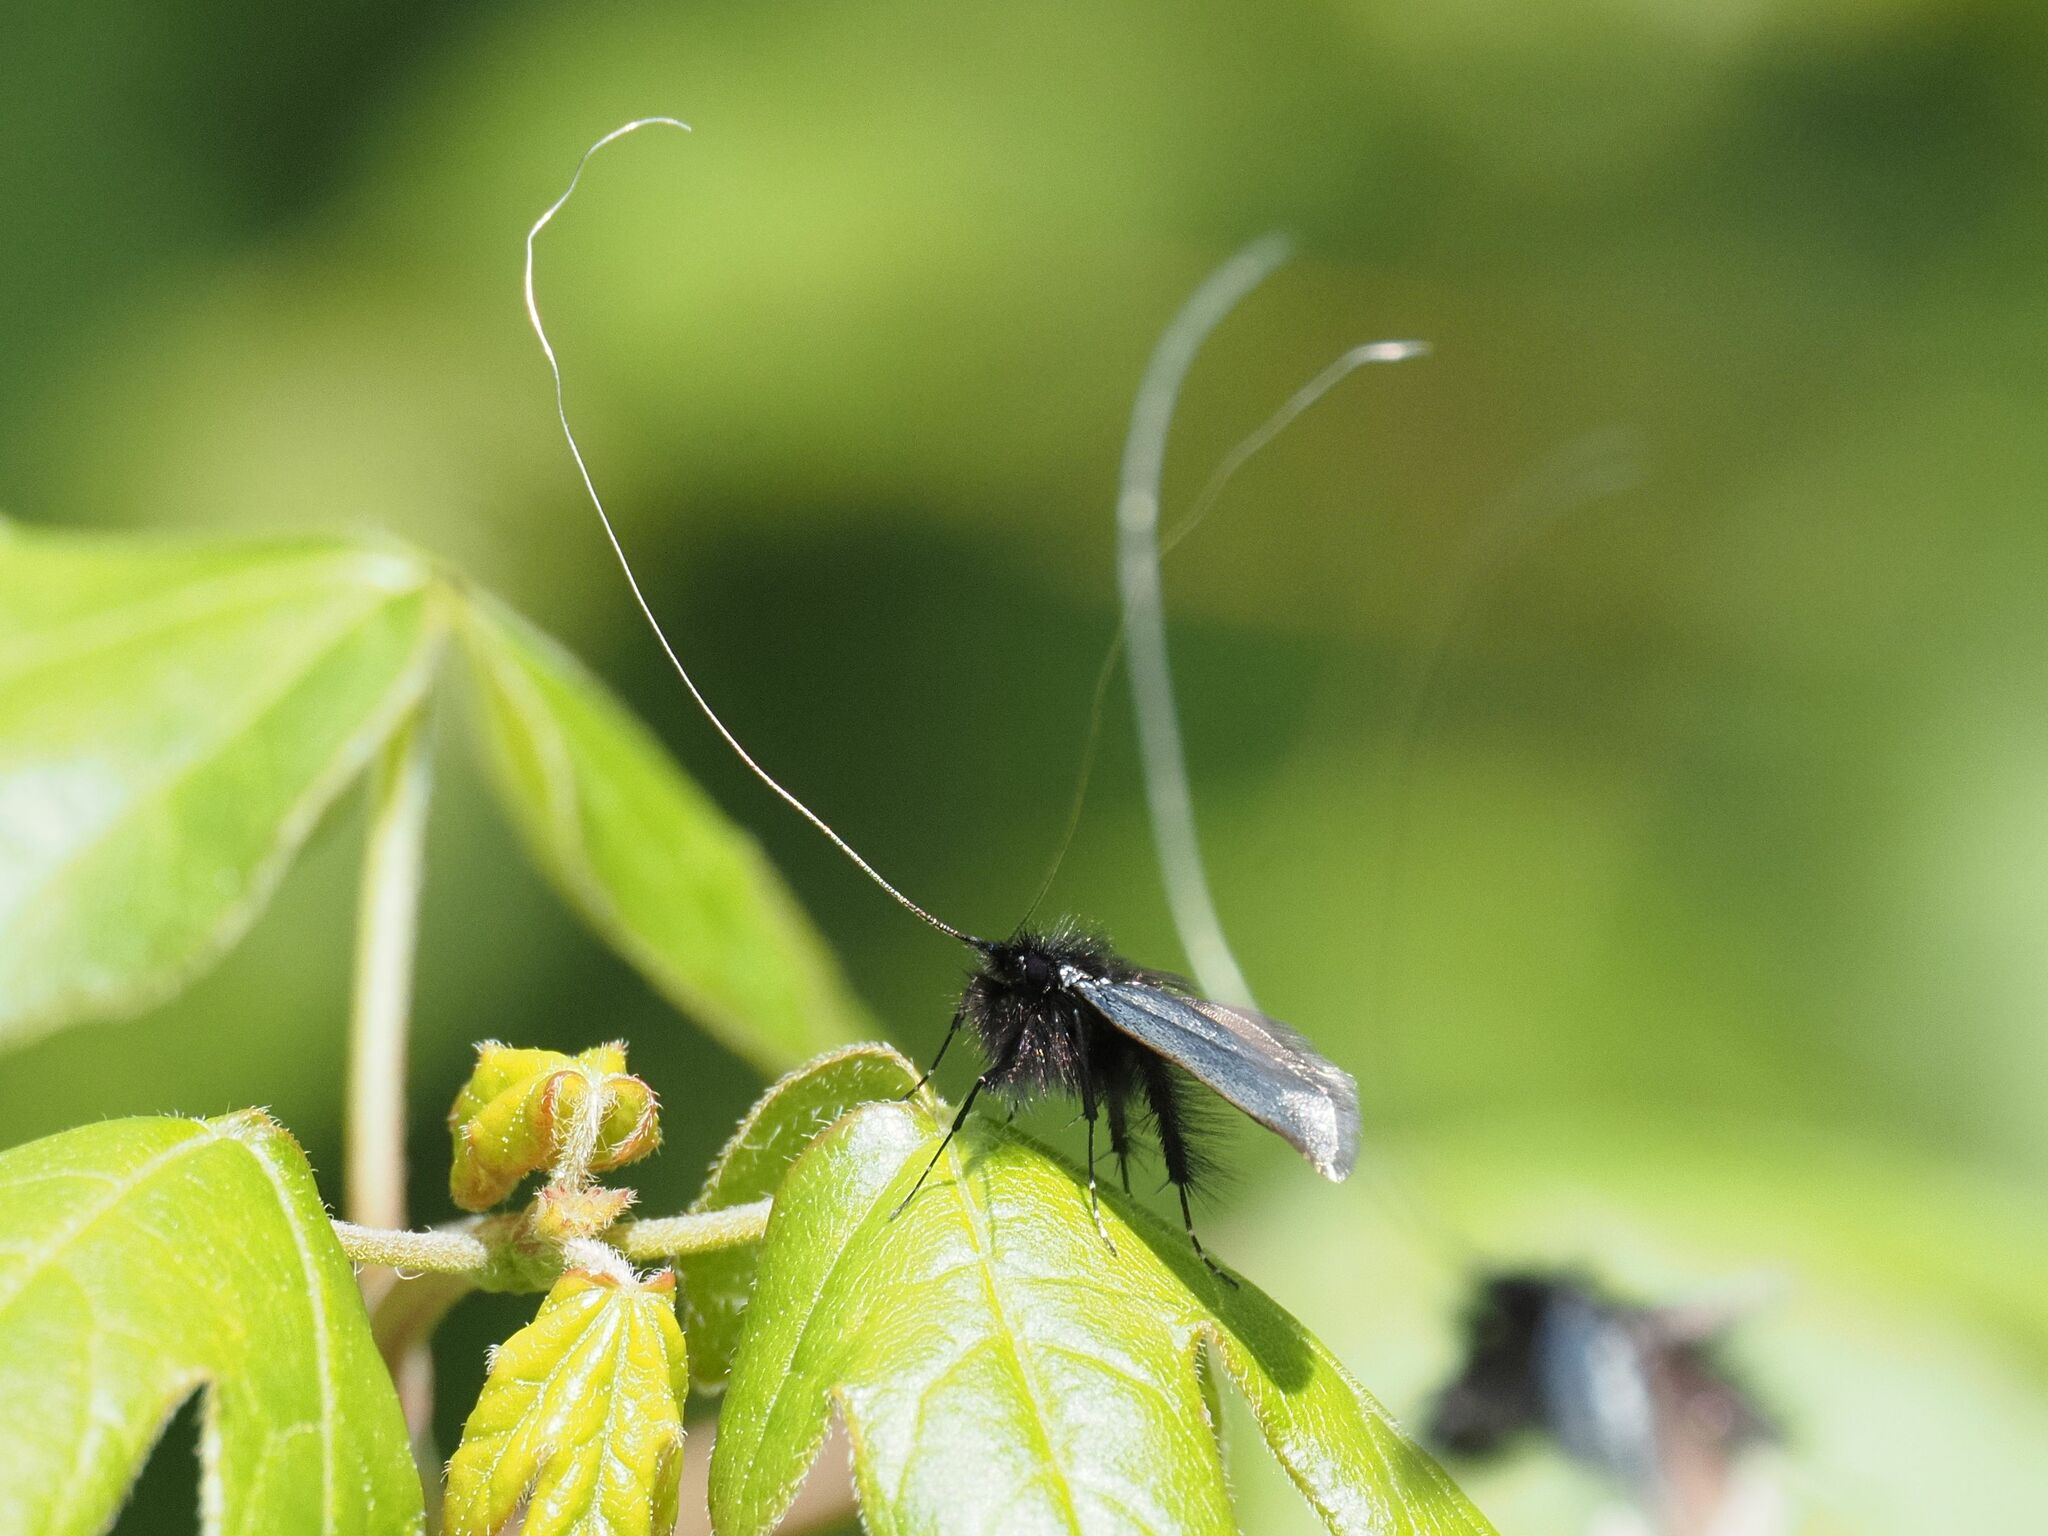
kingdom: Animalia
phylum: Arthropoda
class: Insecta
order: Lepidoptera
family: Adelidae
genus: Adela
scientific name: Adela viridella
